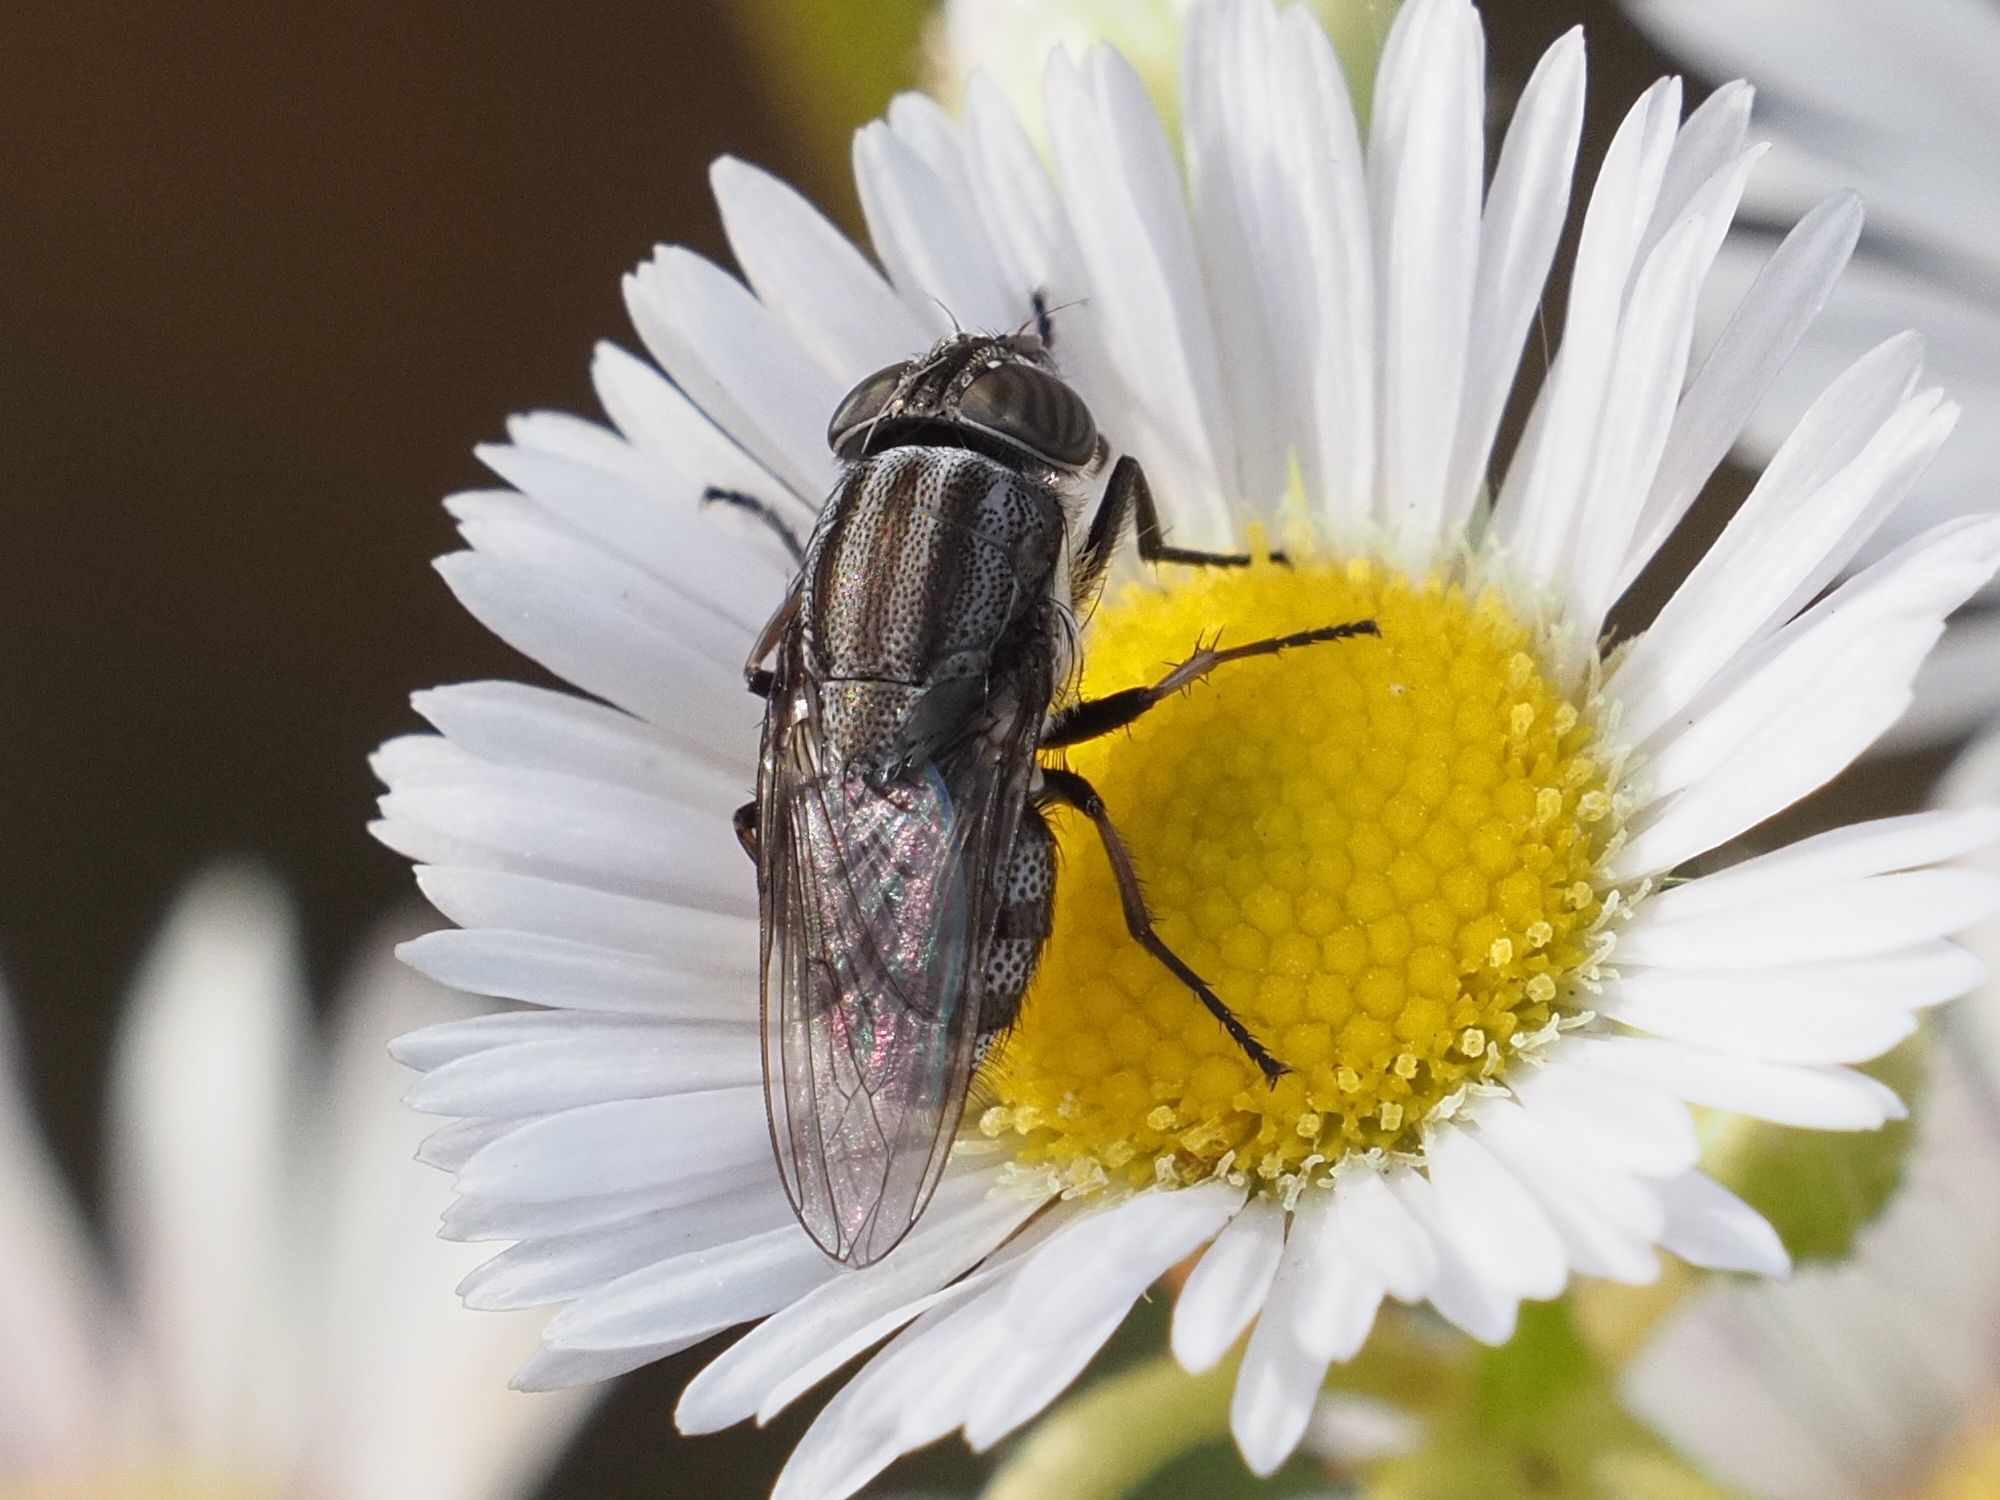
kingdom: Animalia
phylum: Arthropoda
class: Insecta
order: Diptera
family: Calliphoridae
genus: Stomorhina
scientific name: Stomorhina lunata
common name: Locust blowfly
